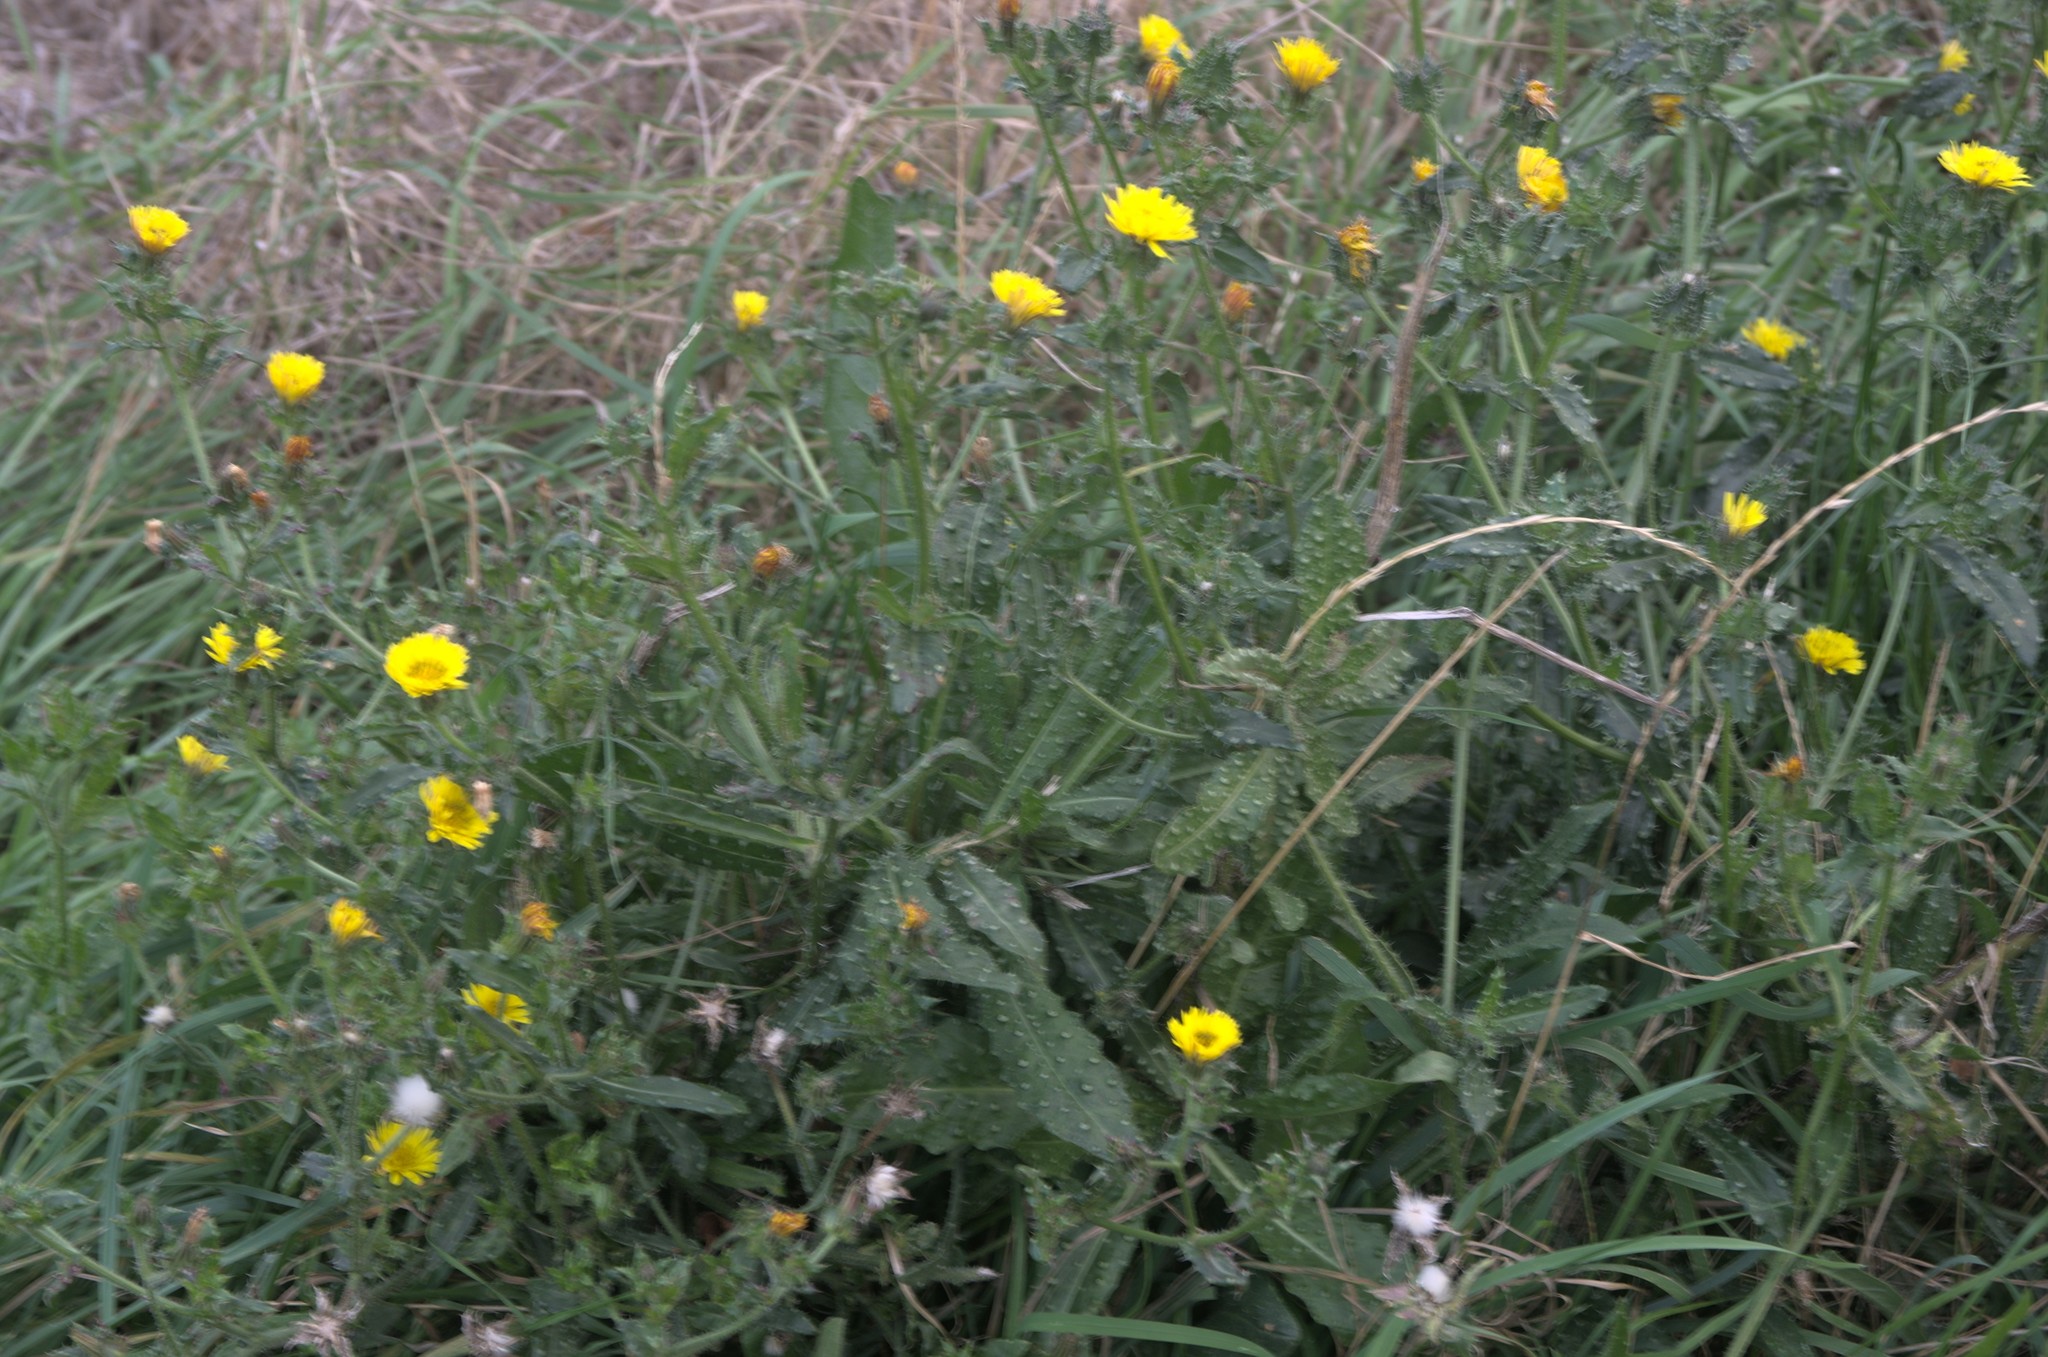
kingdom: Plantae
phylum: Tracheophyta
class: Magnoliopsida
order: Asterales
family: Asteraceae
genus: Helminthotheca
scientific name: Helminthotheca echioides
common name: Ox-tongue
